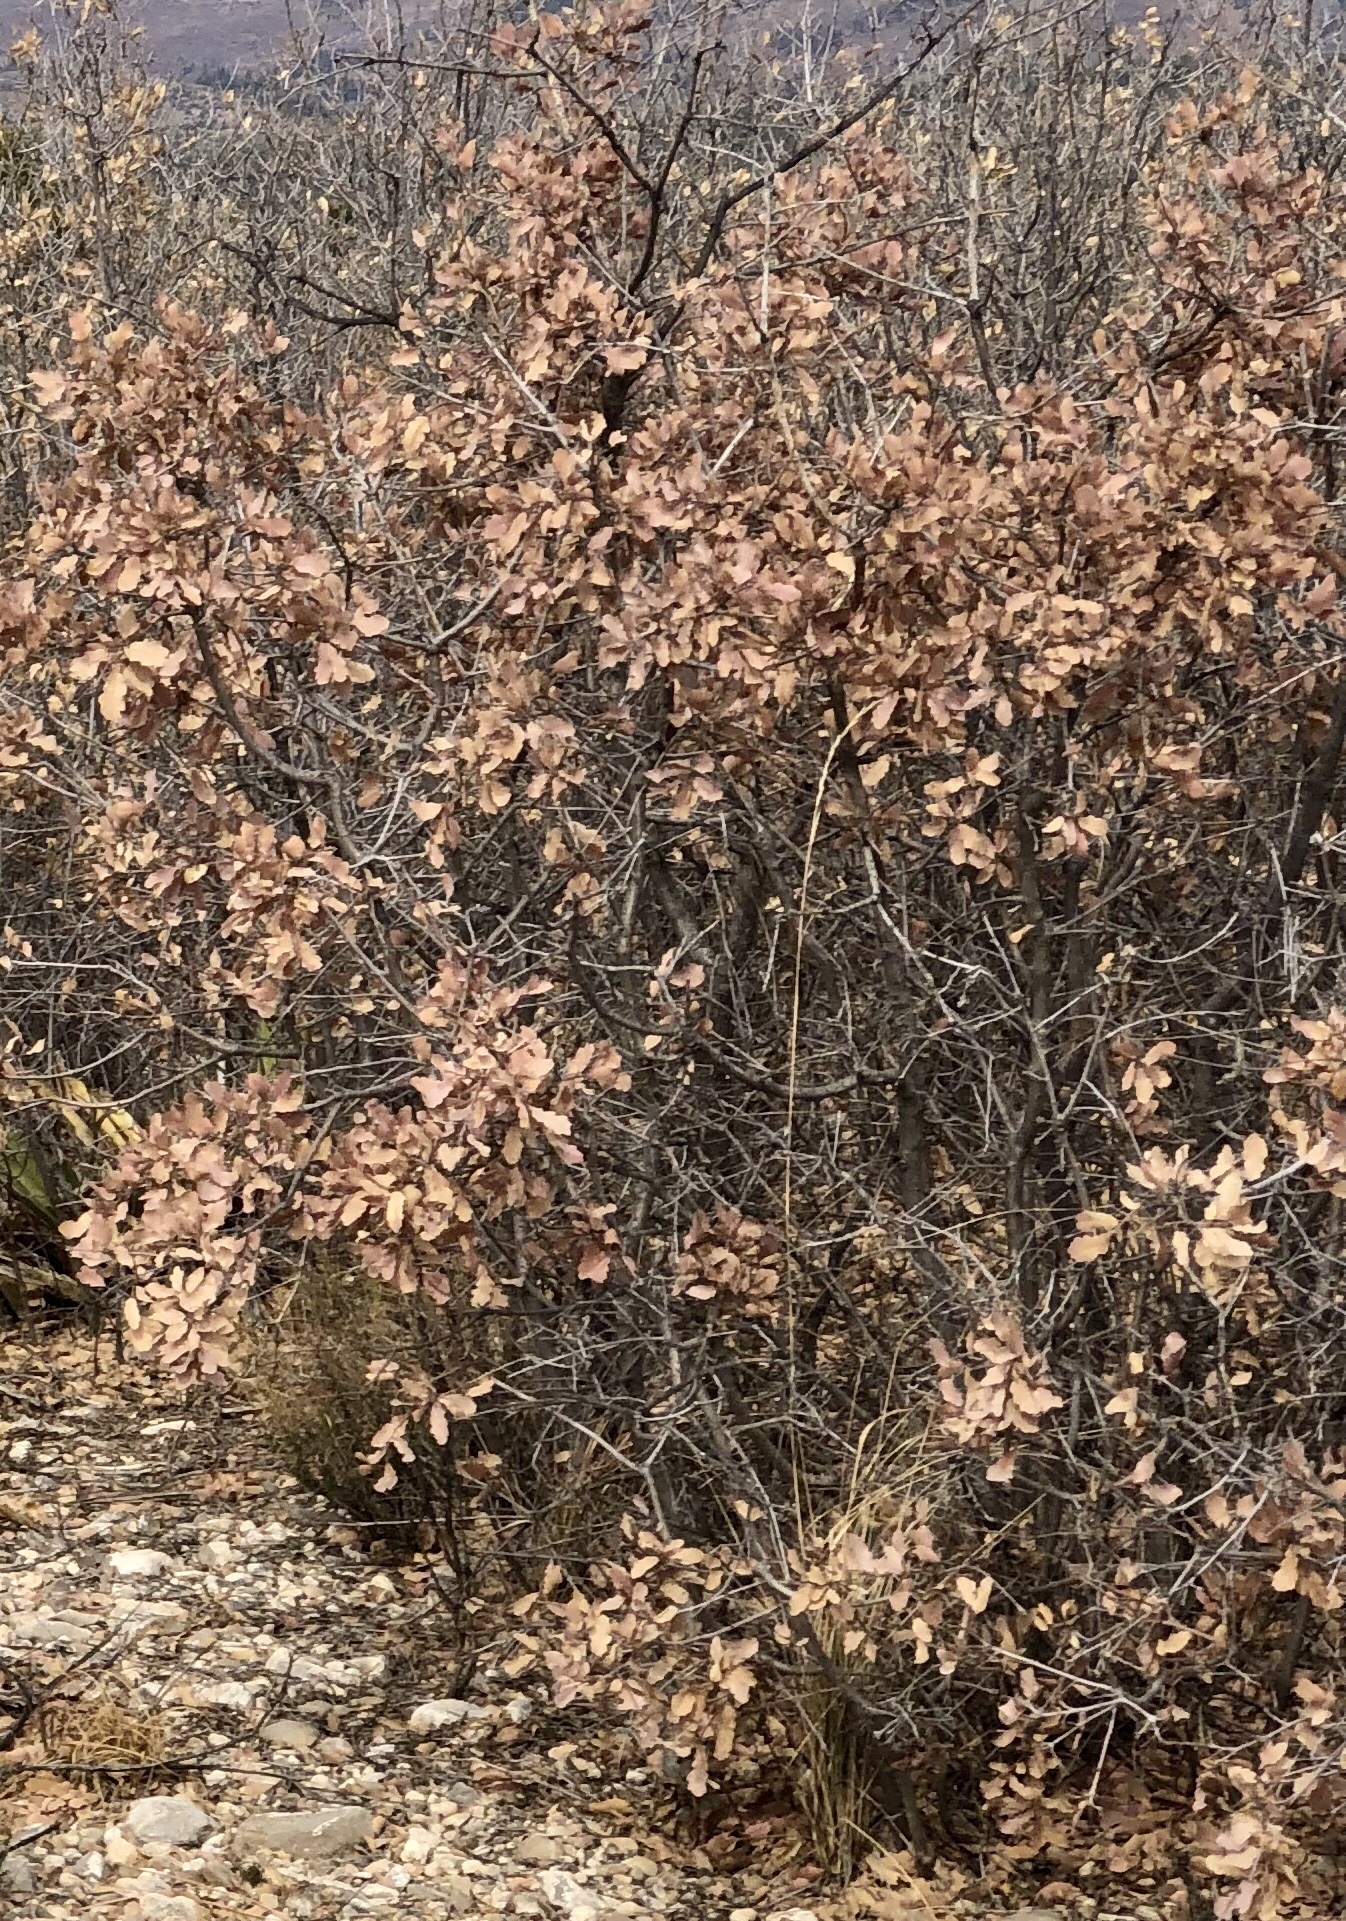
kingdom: Plantae
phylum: Tracheophyta
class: Magnoliopsida
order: Fagales
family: Fagaceae
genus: Quercus
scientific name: Quercus undulata
